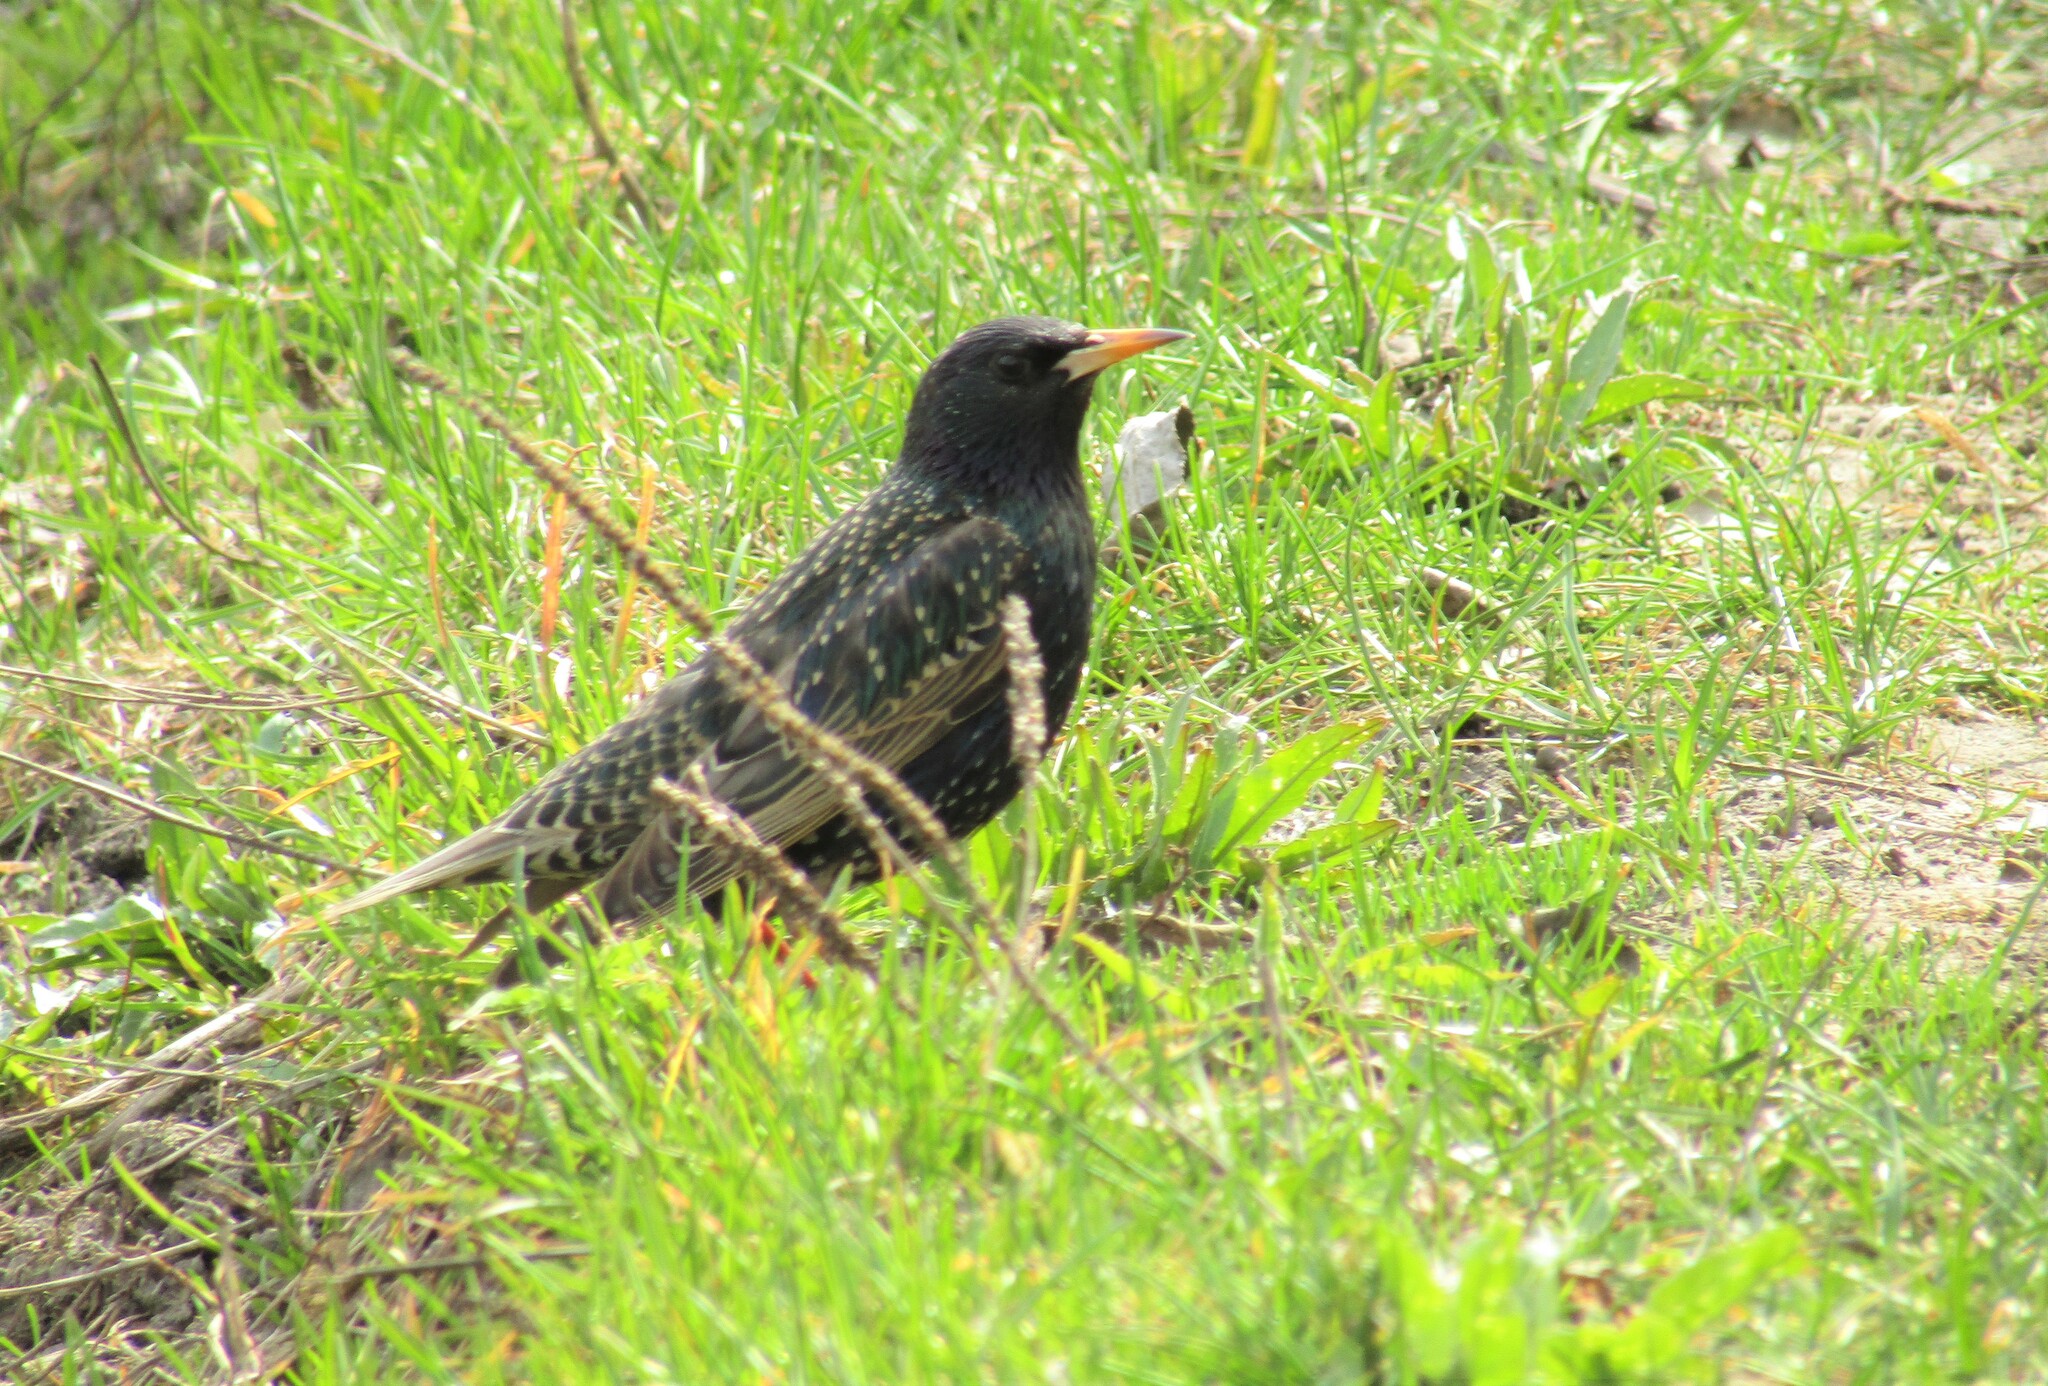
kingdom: Animalia
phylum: Chordata
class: Aves
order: Passeriformes
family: Sturnidae
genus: Sturnus
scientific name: Sturnus vulgaris
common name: Common starling
